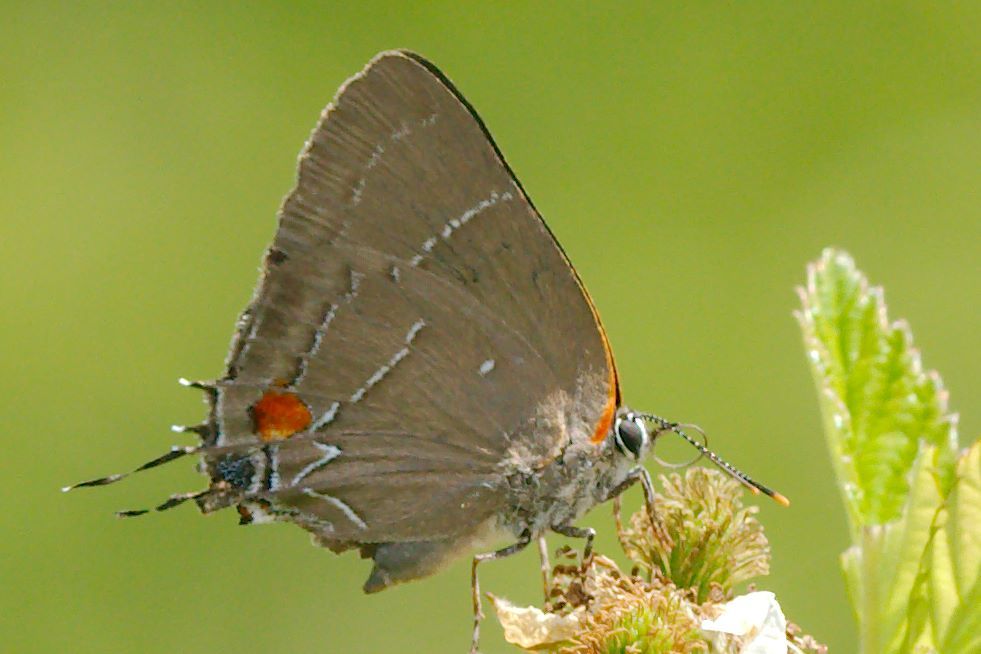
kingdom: Animalia
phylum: Arthropoda
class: Insecta
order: Lepidoptera
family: Lycaenidae
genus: Parrhasius
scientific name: Parrhasius m-album
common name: White m hairstreak
